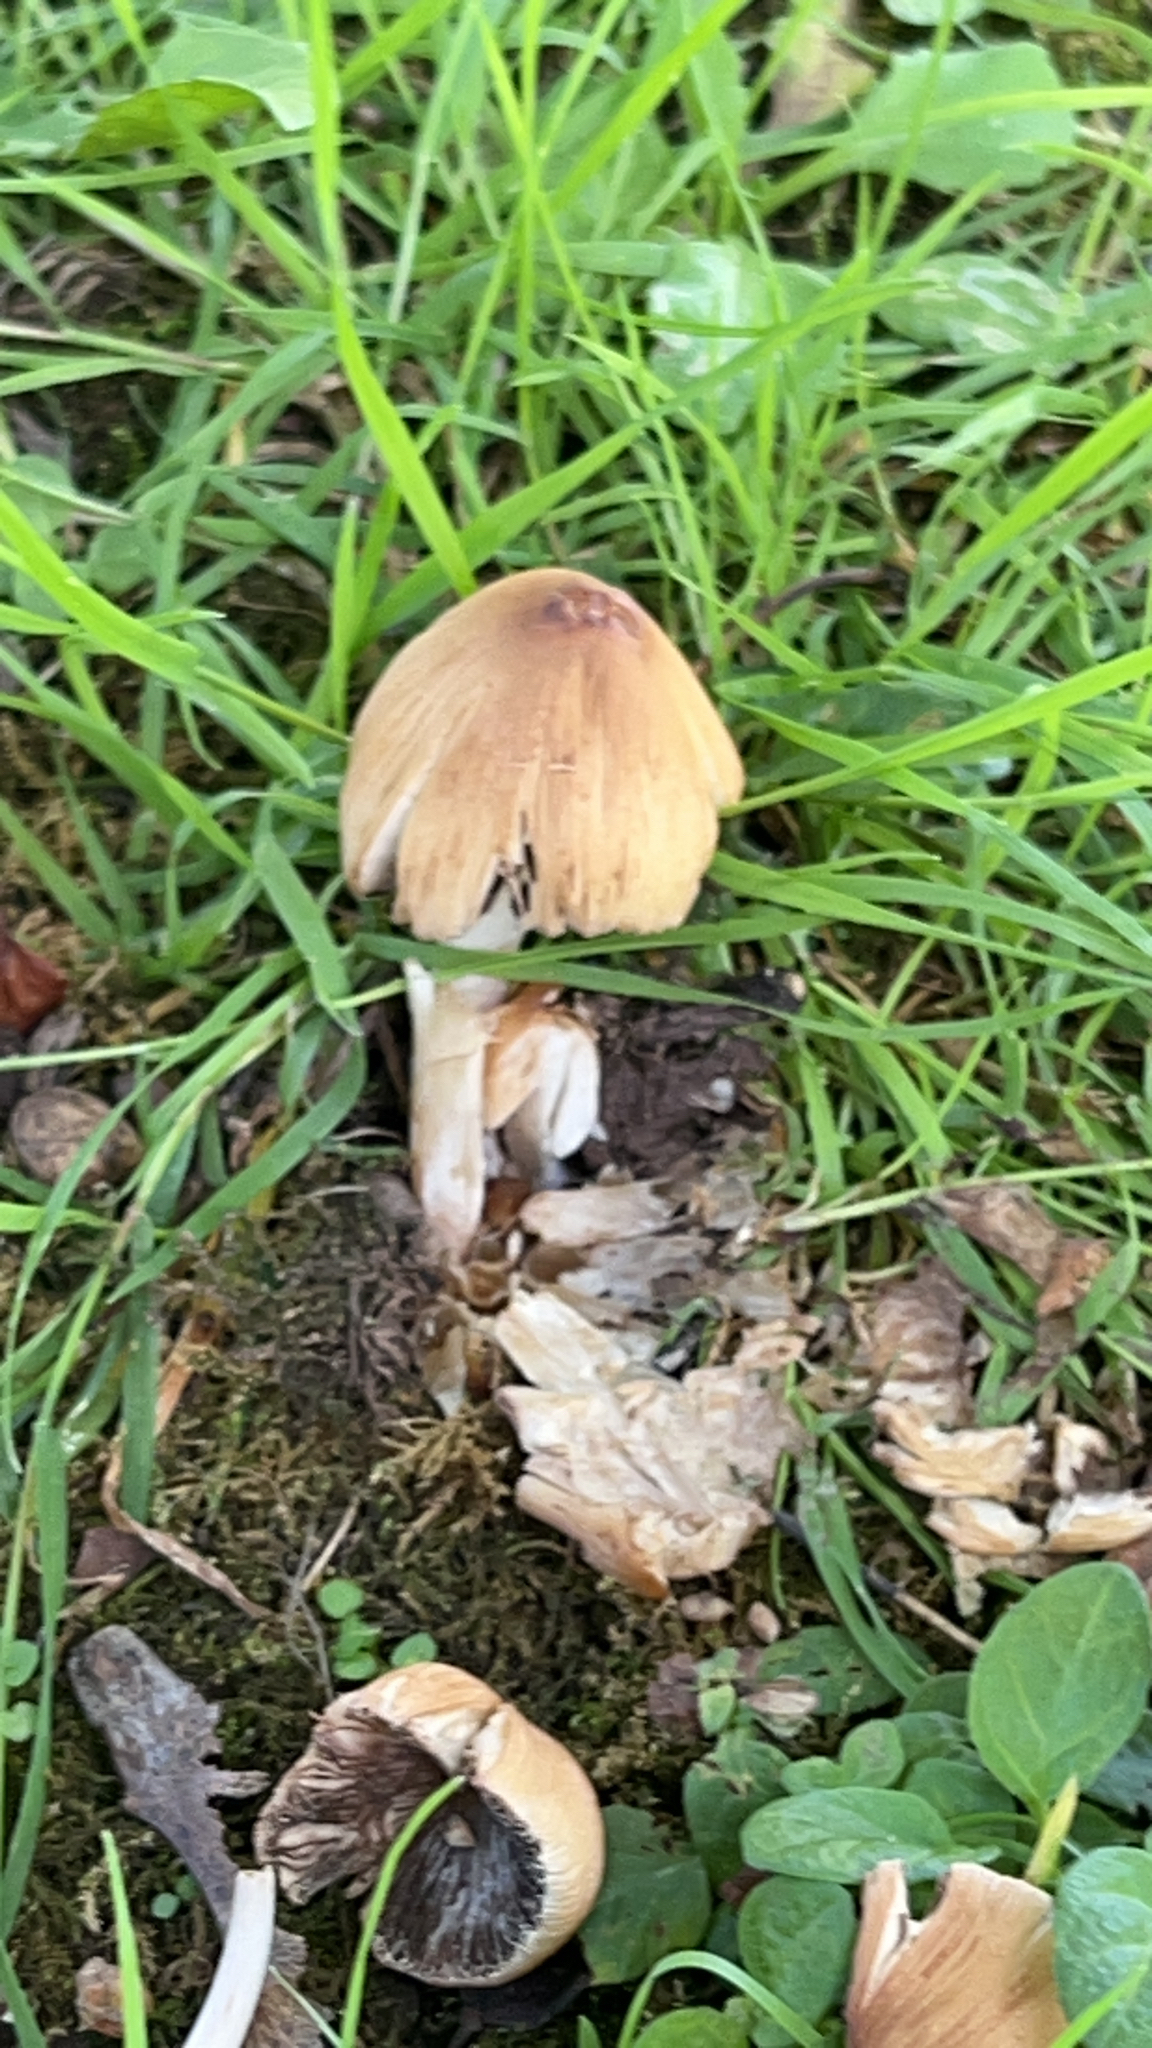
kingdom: Fungi
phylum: Basidiomycota
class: Agaricomycetes
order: Agaricales
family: Psathyrellaceae
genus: Coprinellus
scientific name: Coprinellus micaceus
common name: Glistening ink-cap
